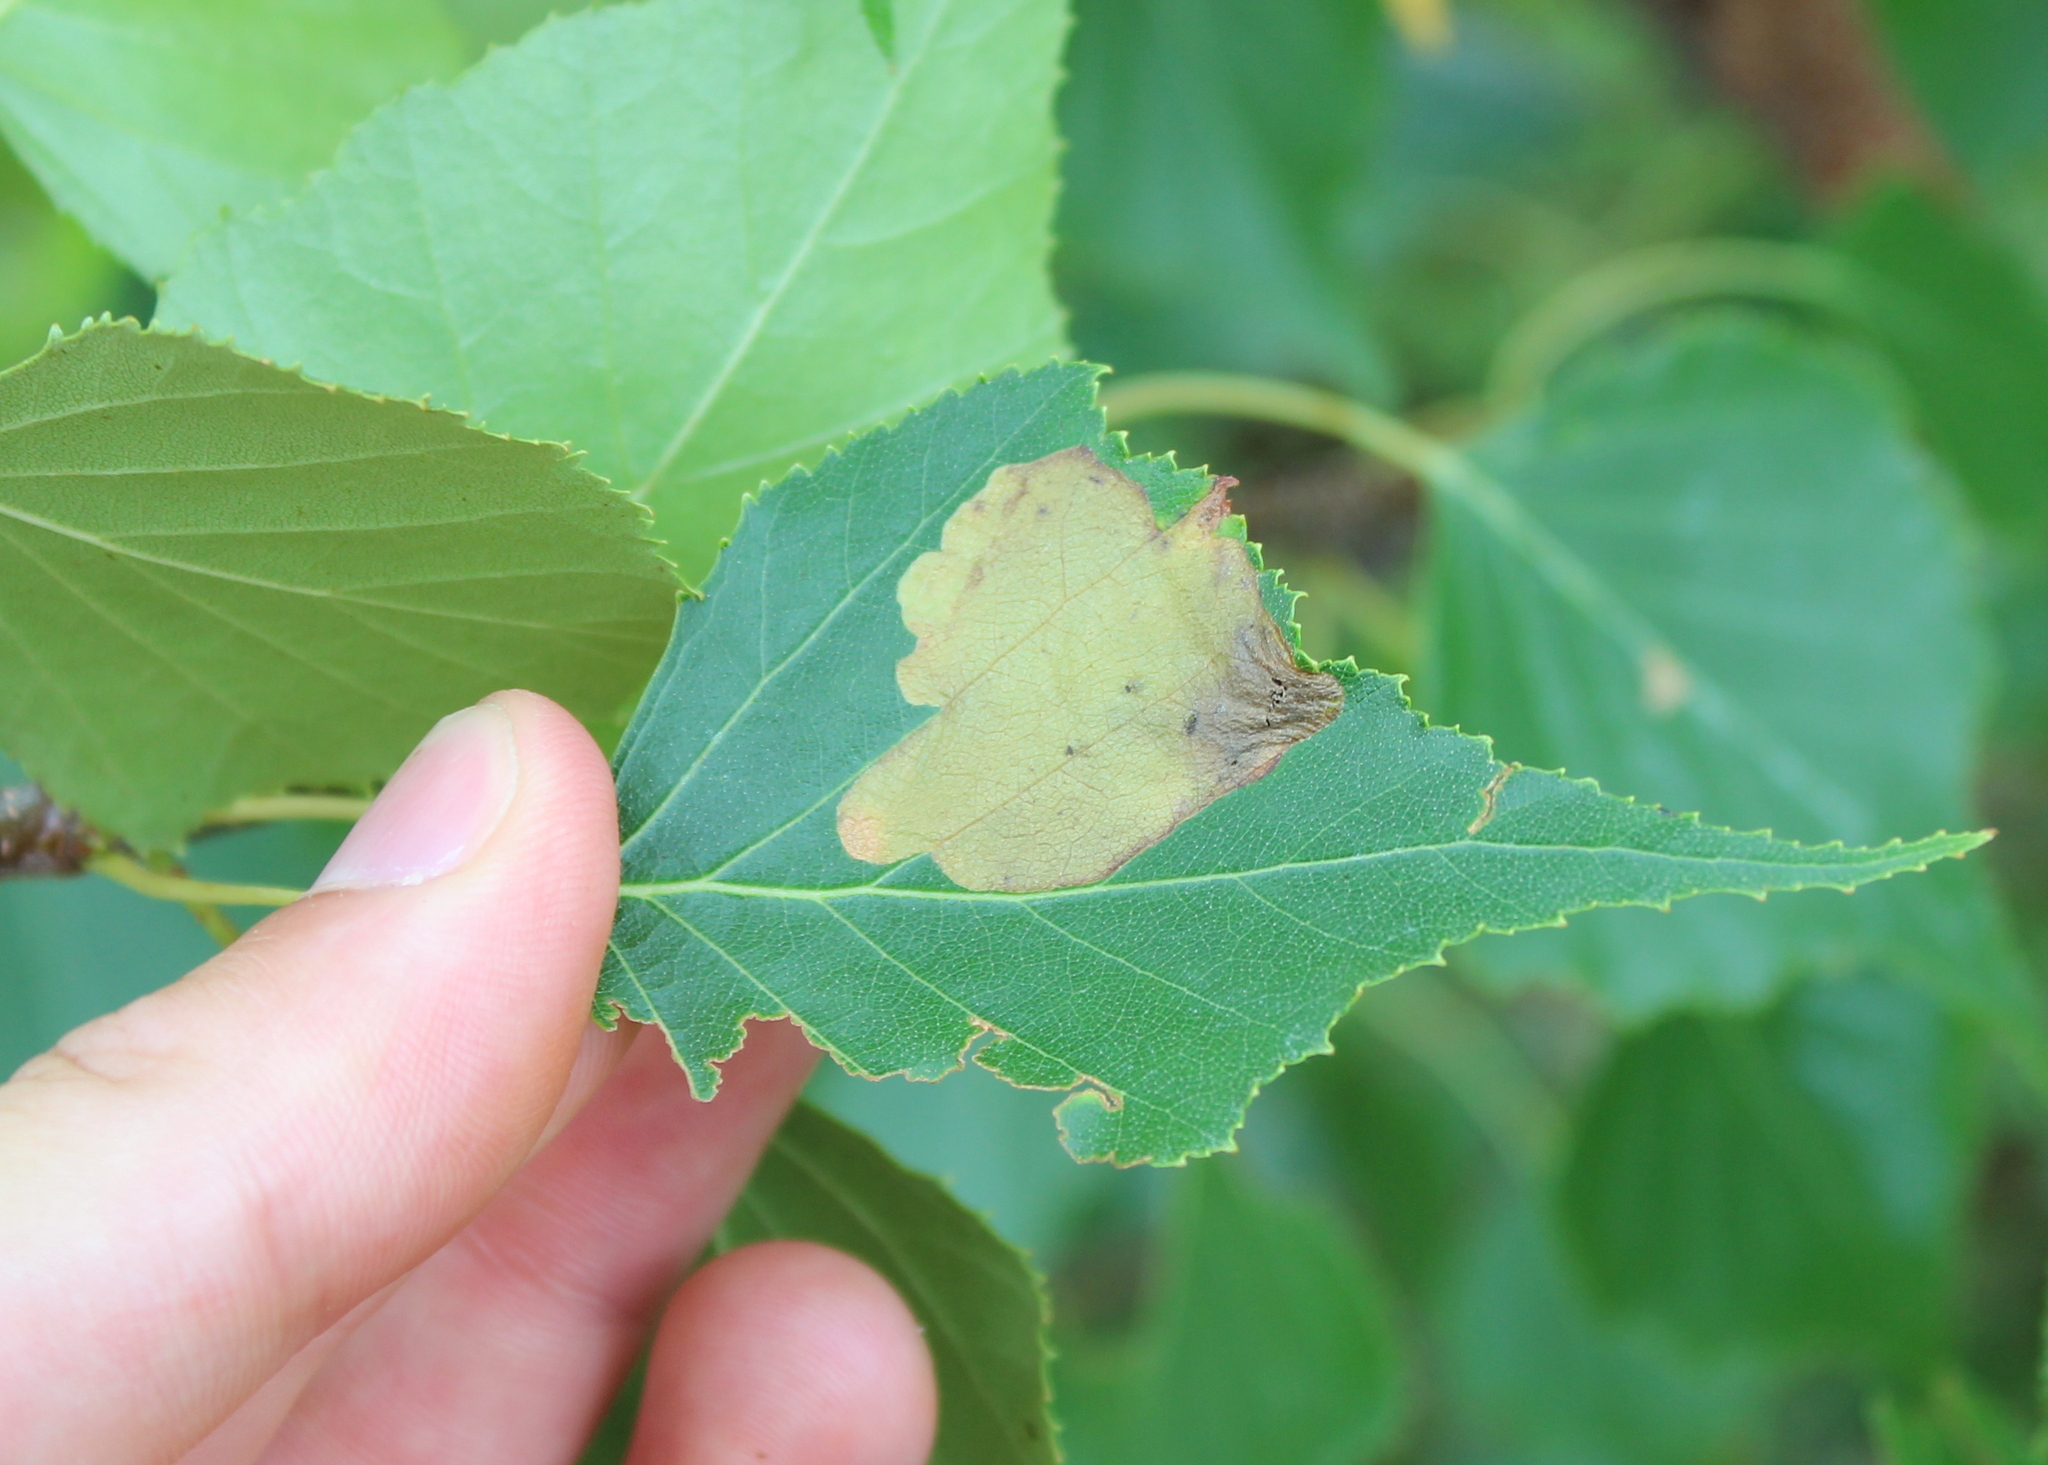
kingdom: Animalia
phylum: Arthropoda
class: Insecta
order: Hymenoptera
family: Tenthredinidae
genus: Fenusella
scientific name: Fenusella nana
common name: Early birch leaf edgeminer
